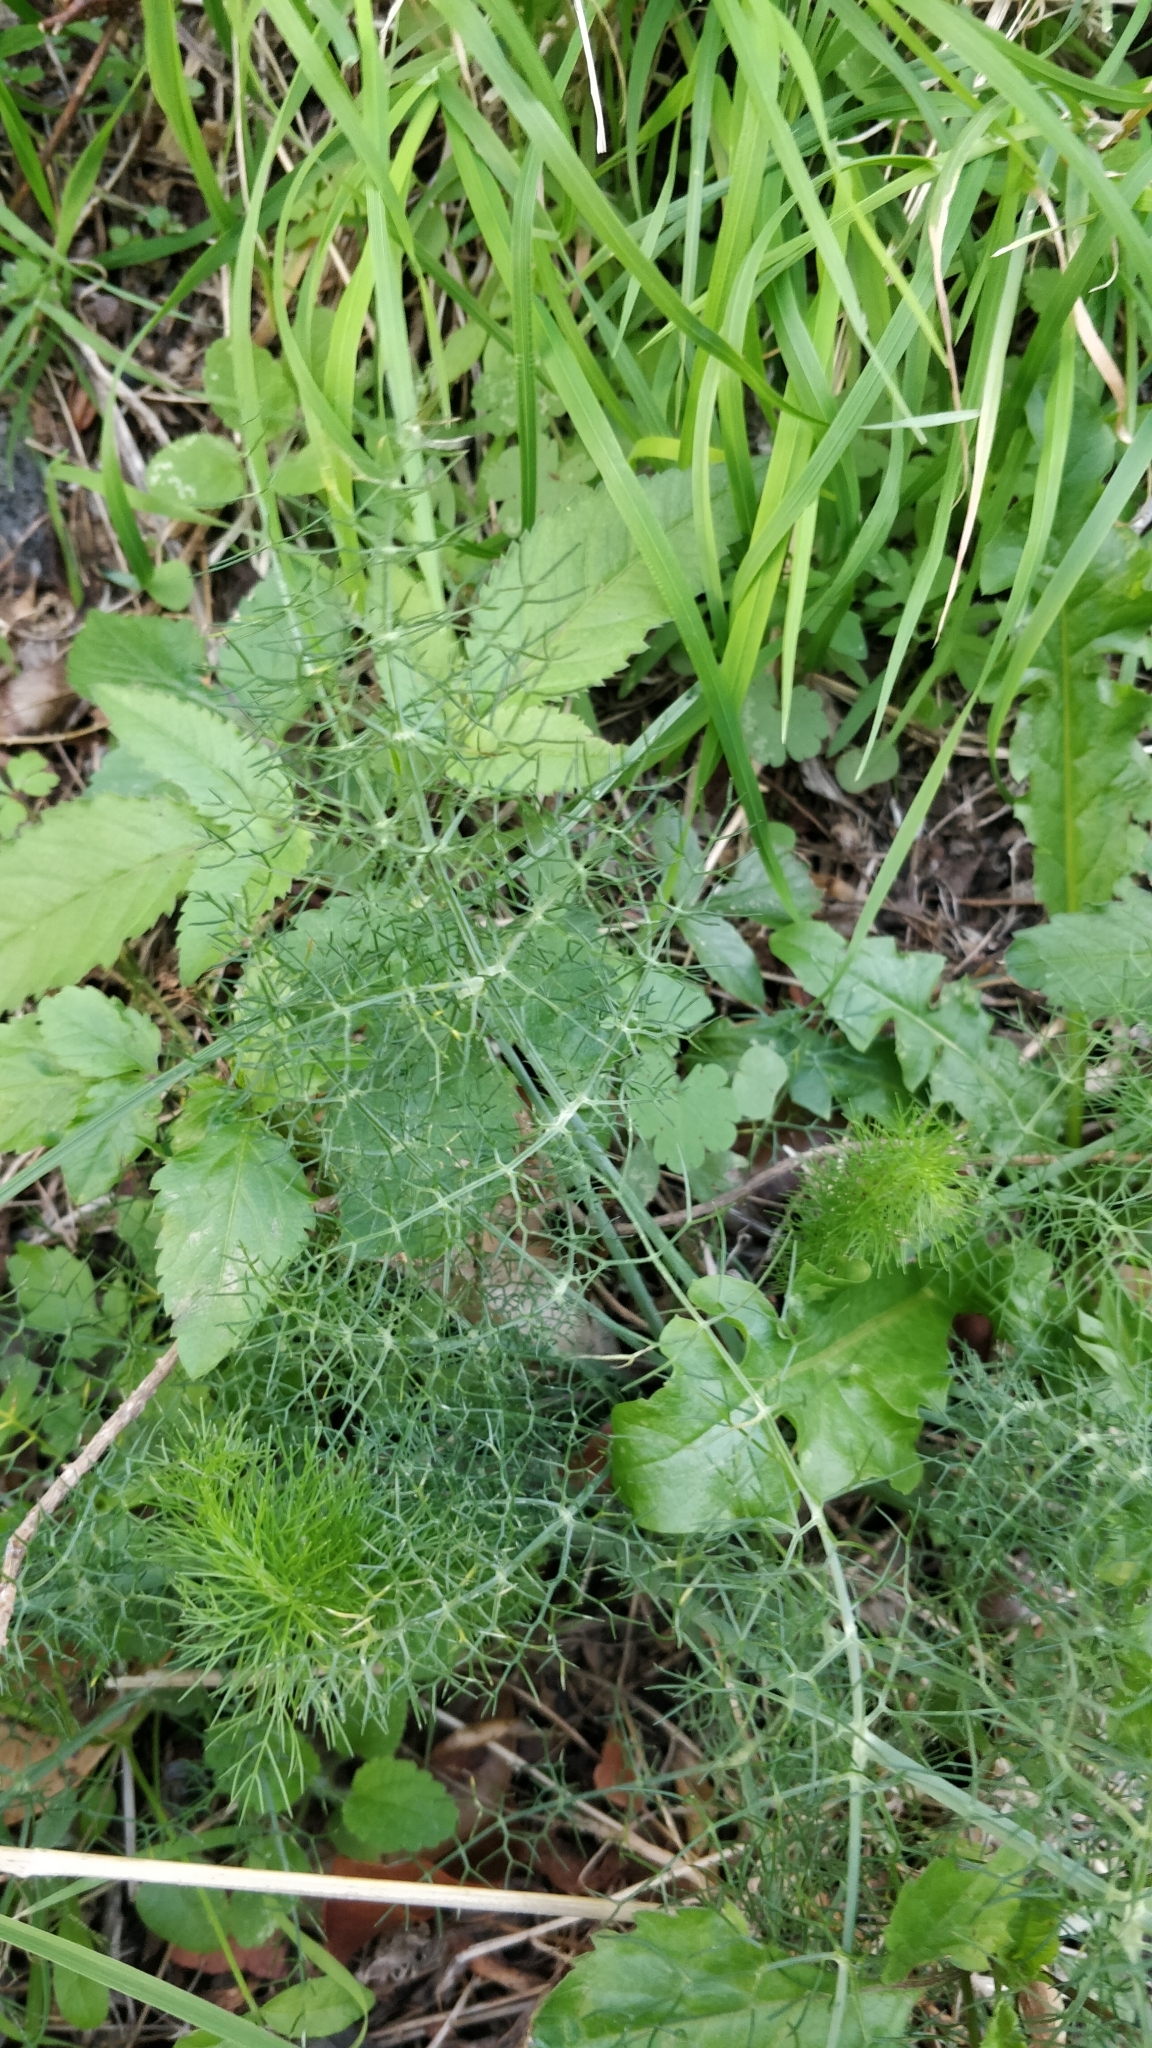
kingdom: Plantae
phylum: Tracheophyta
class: Magnoliopsida
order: Apiales
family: Apiaceae
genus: Foeniculum
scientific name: Foeniculum vulgare
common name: Fennel
